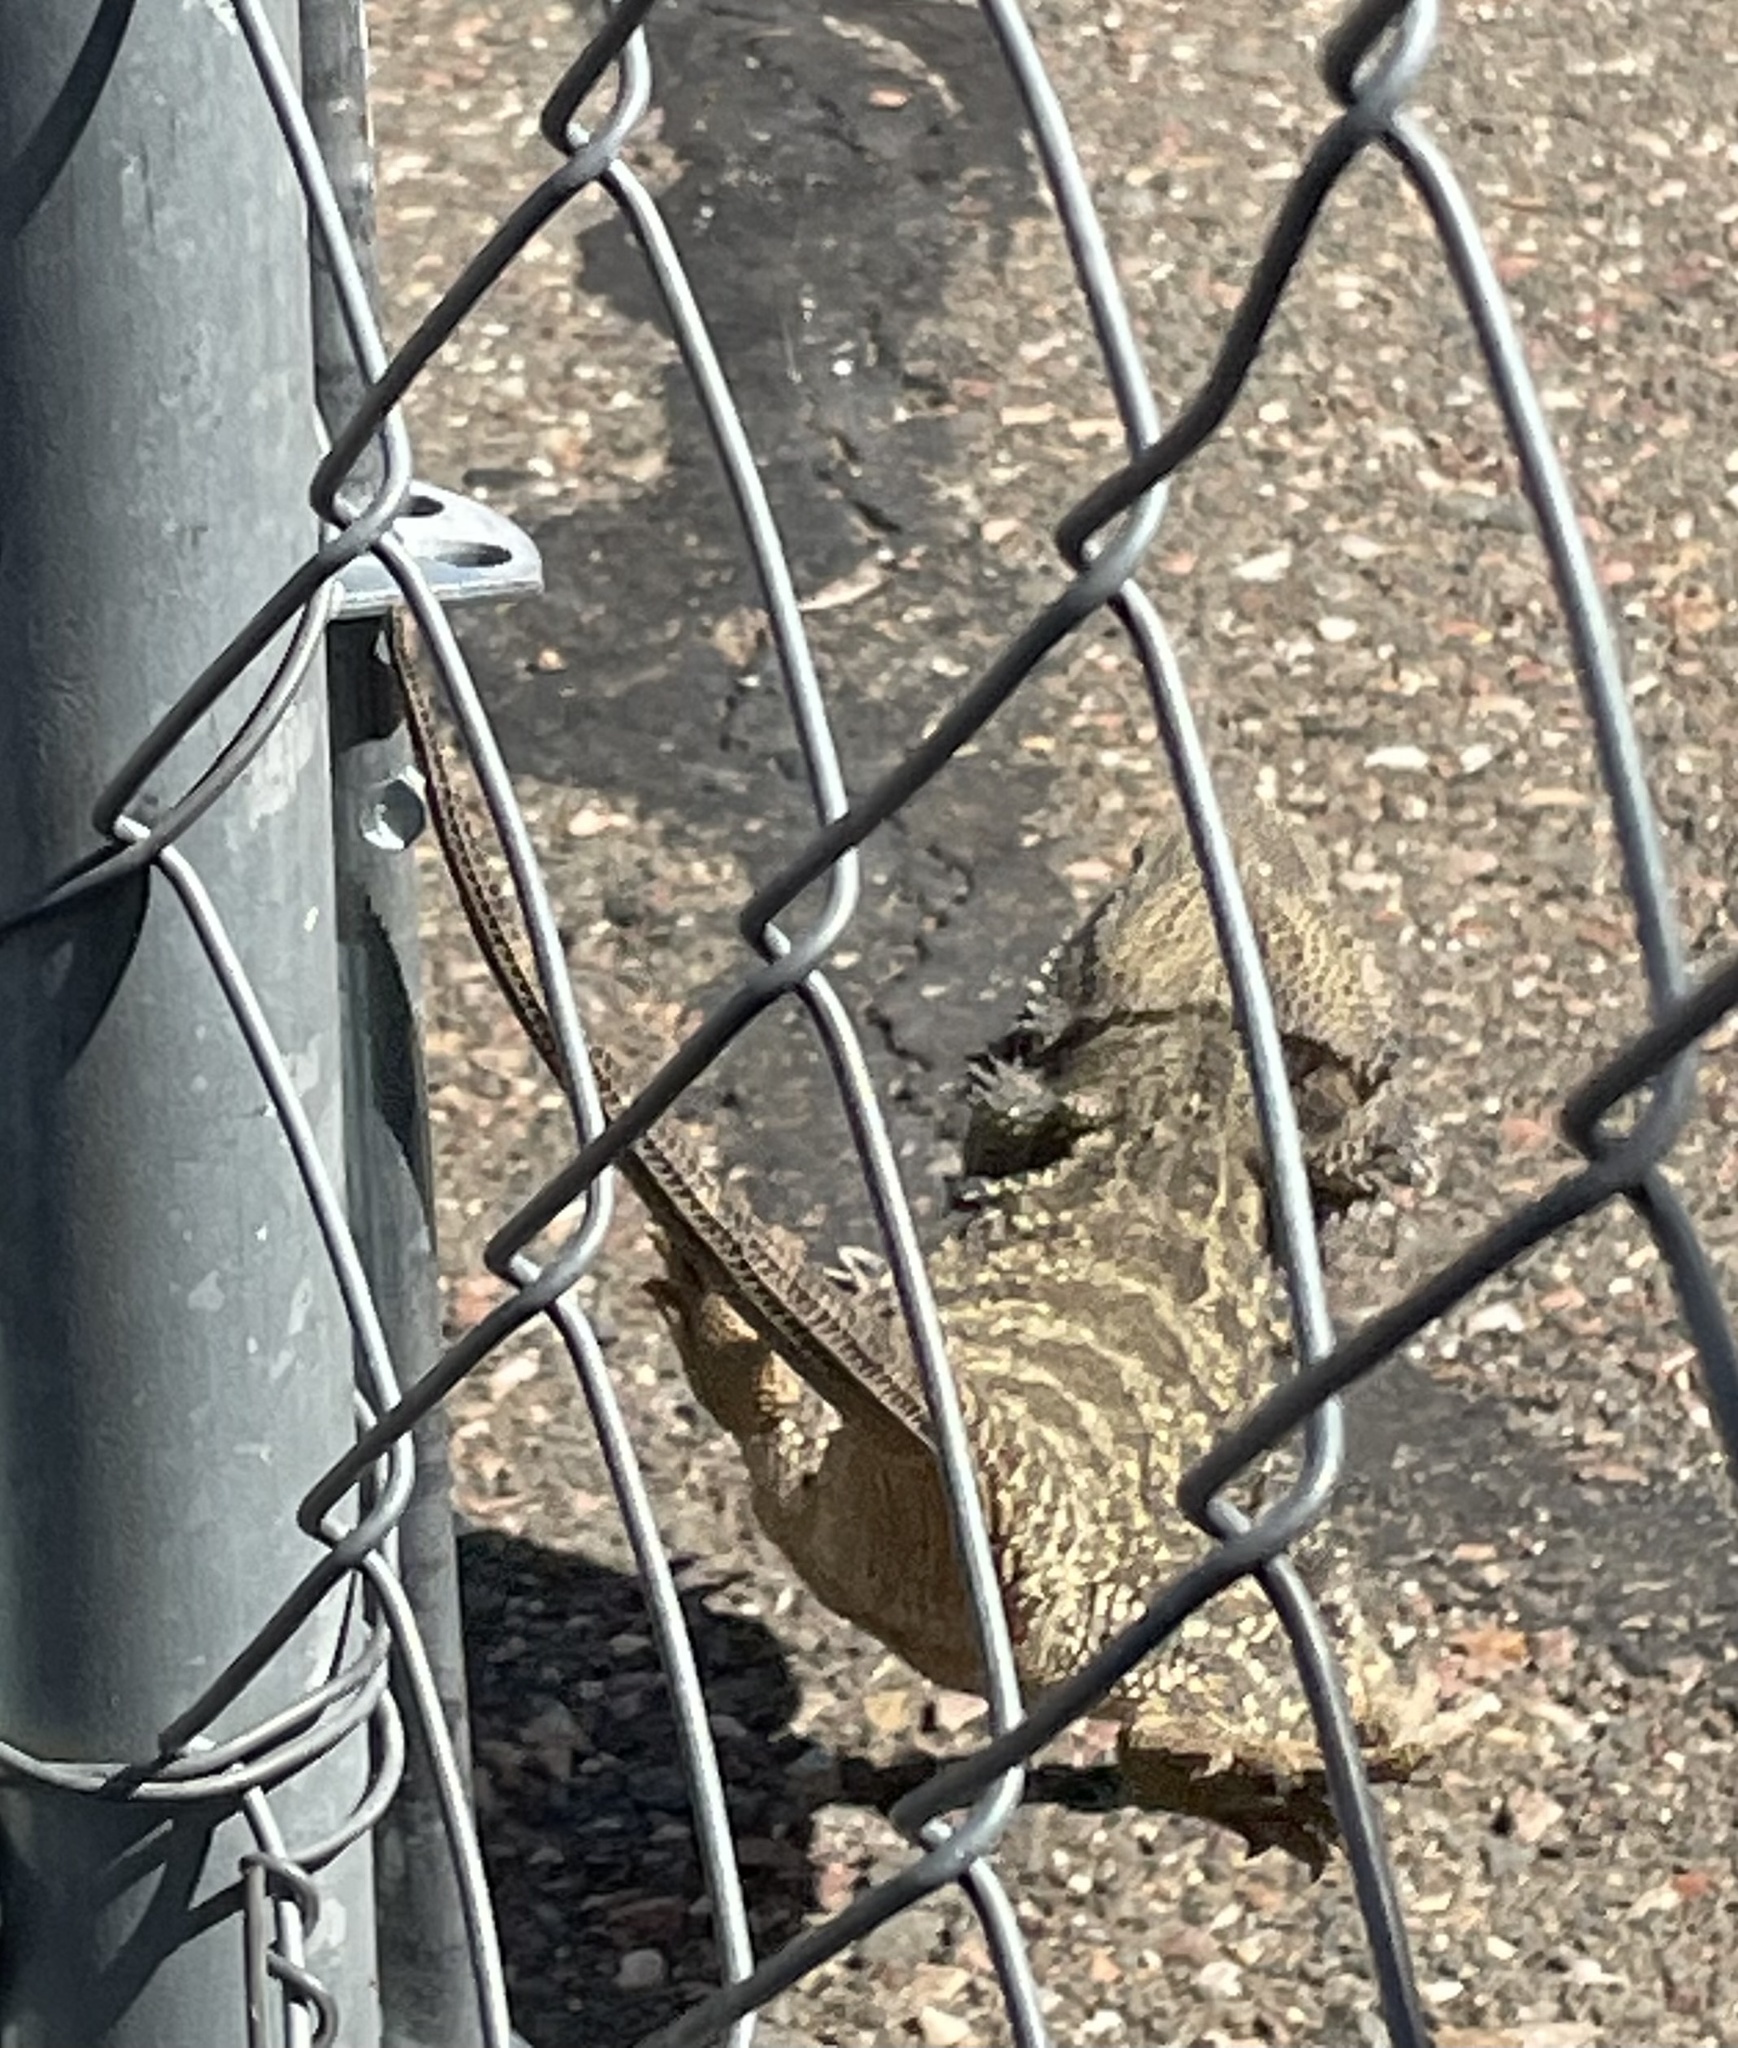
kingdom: Animalia
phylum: Chordata
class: Squamata
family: Agamidae
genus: Pogona
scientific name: Pogona vitticeps
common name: Central bearded dragon
